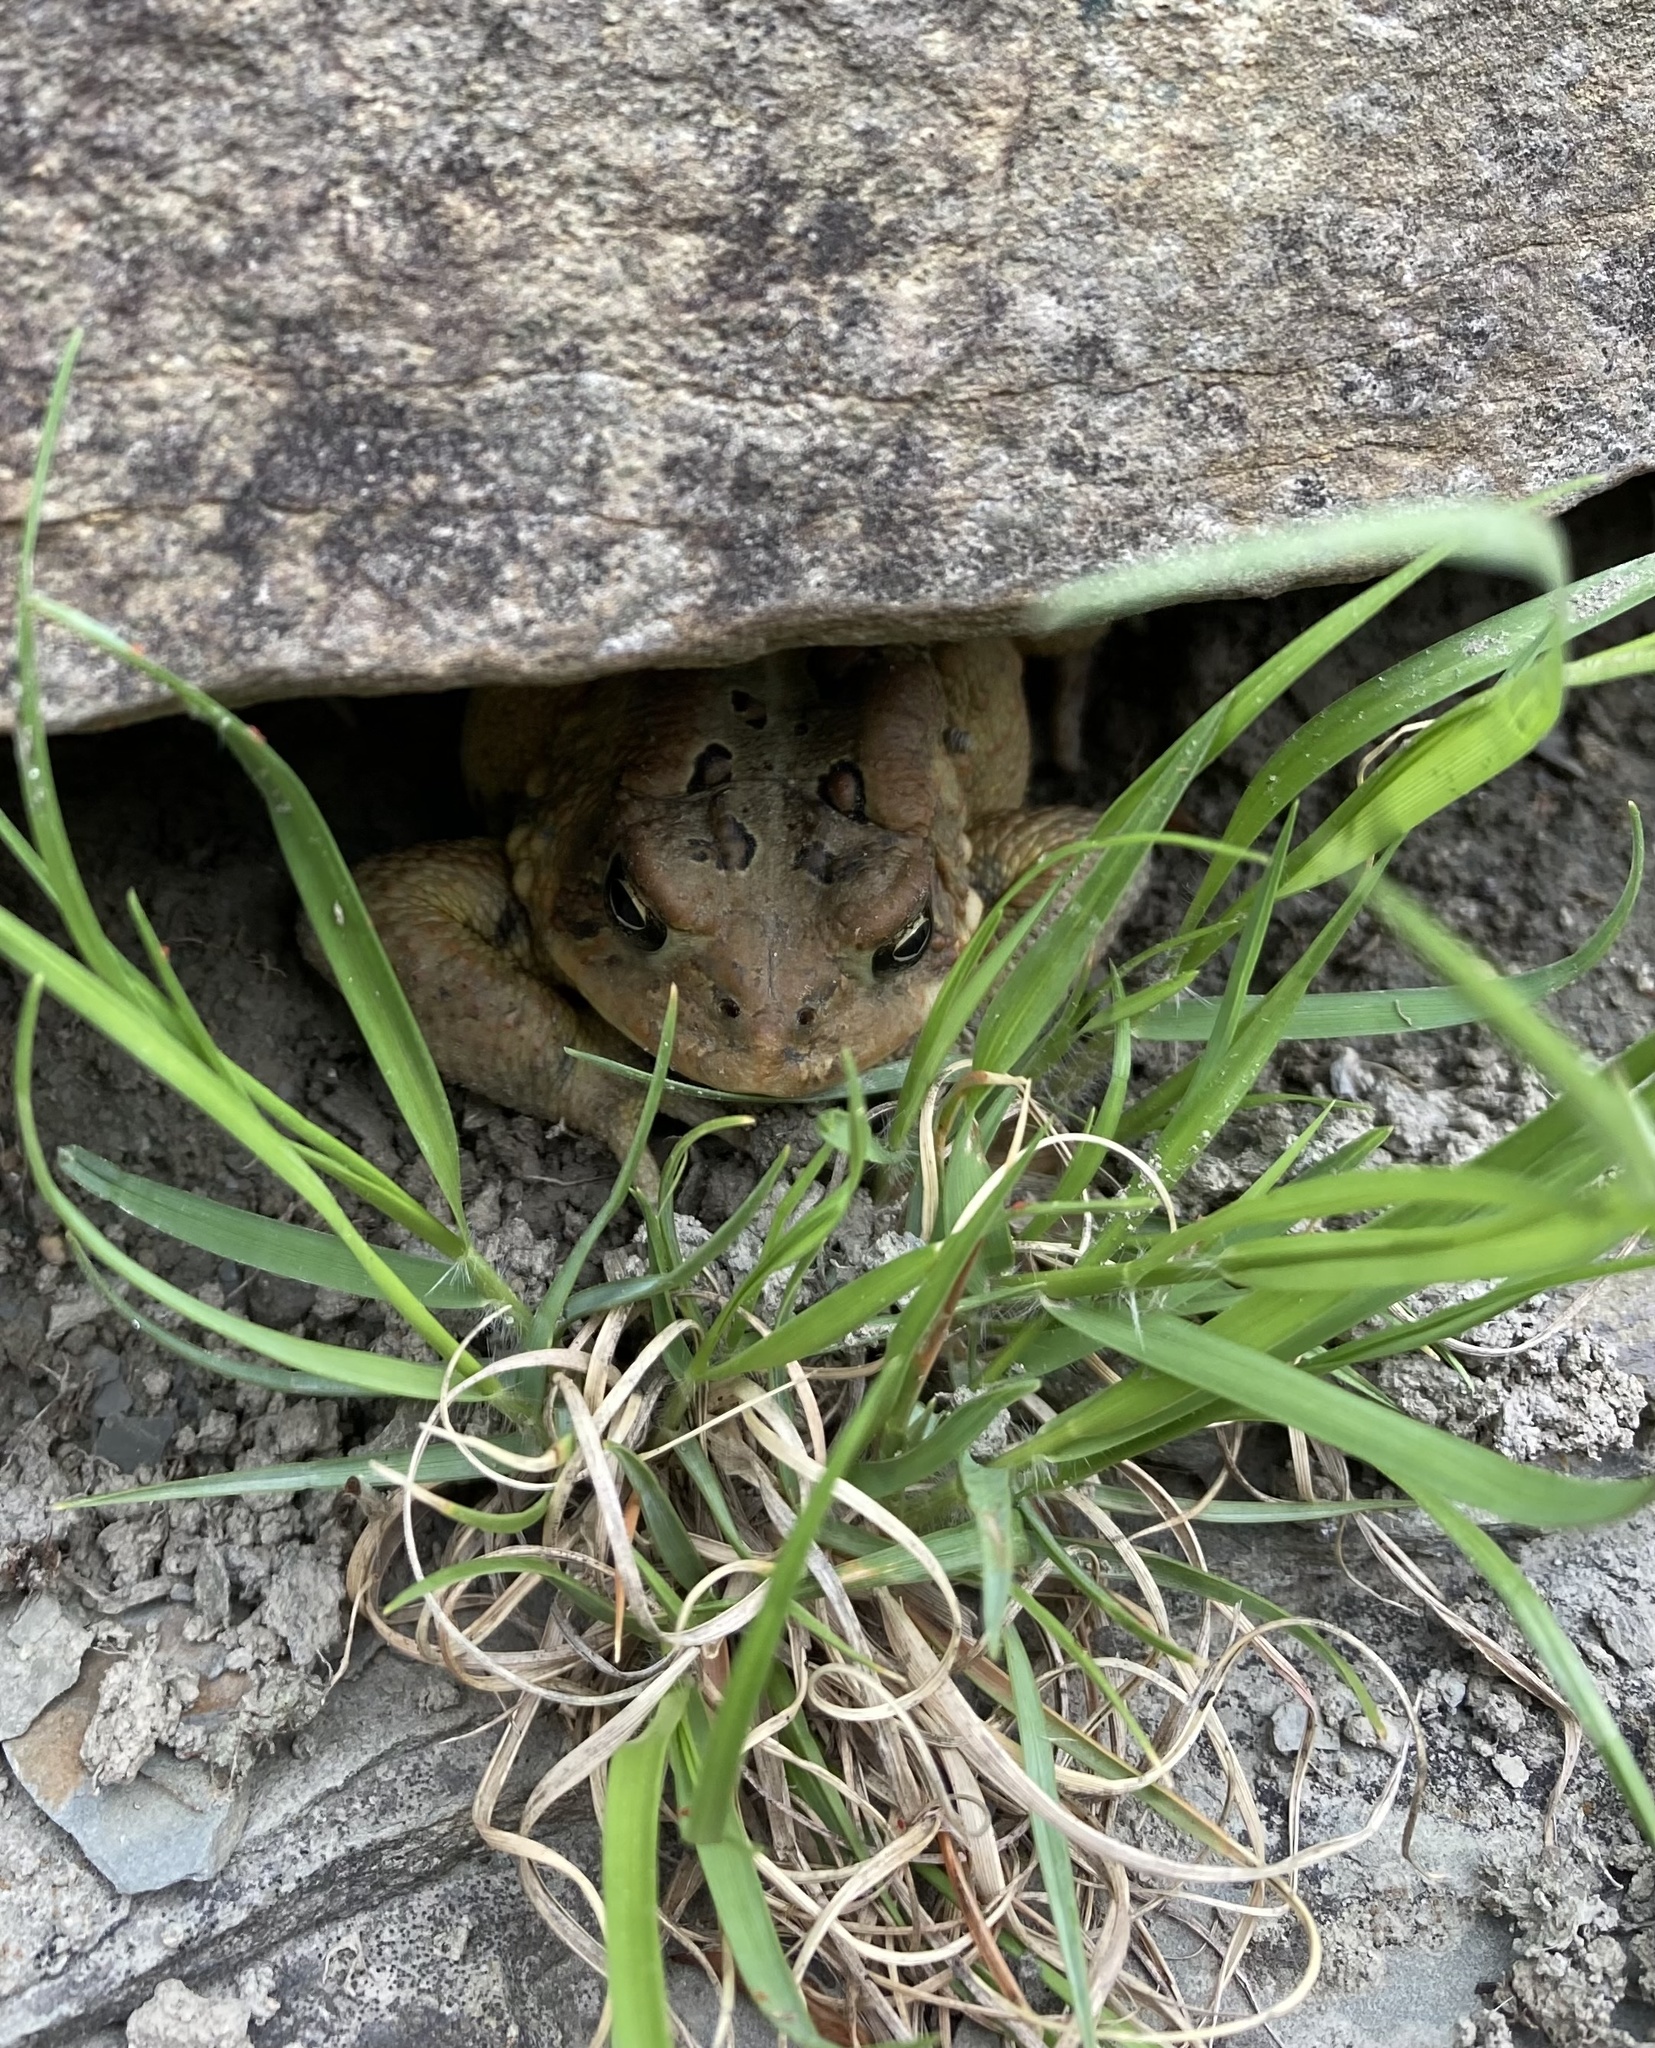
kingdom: Animalia
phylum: Chordata
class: Amphibia
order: Anura
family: Bufonidae
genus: Anaxyrus
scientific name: Anaxyrus americanus
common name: American toad
